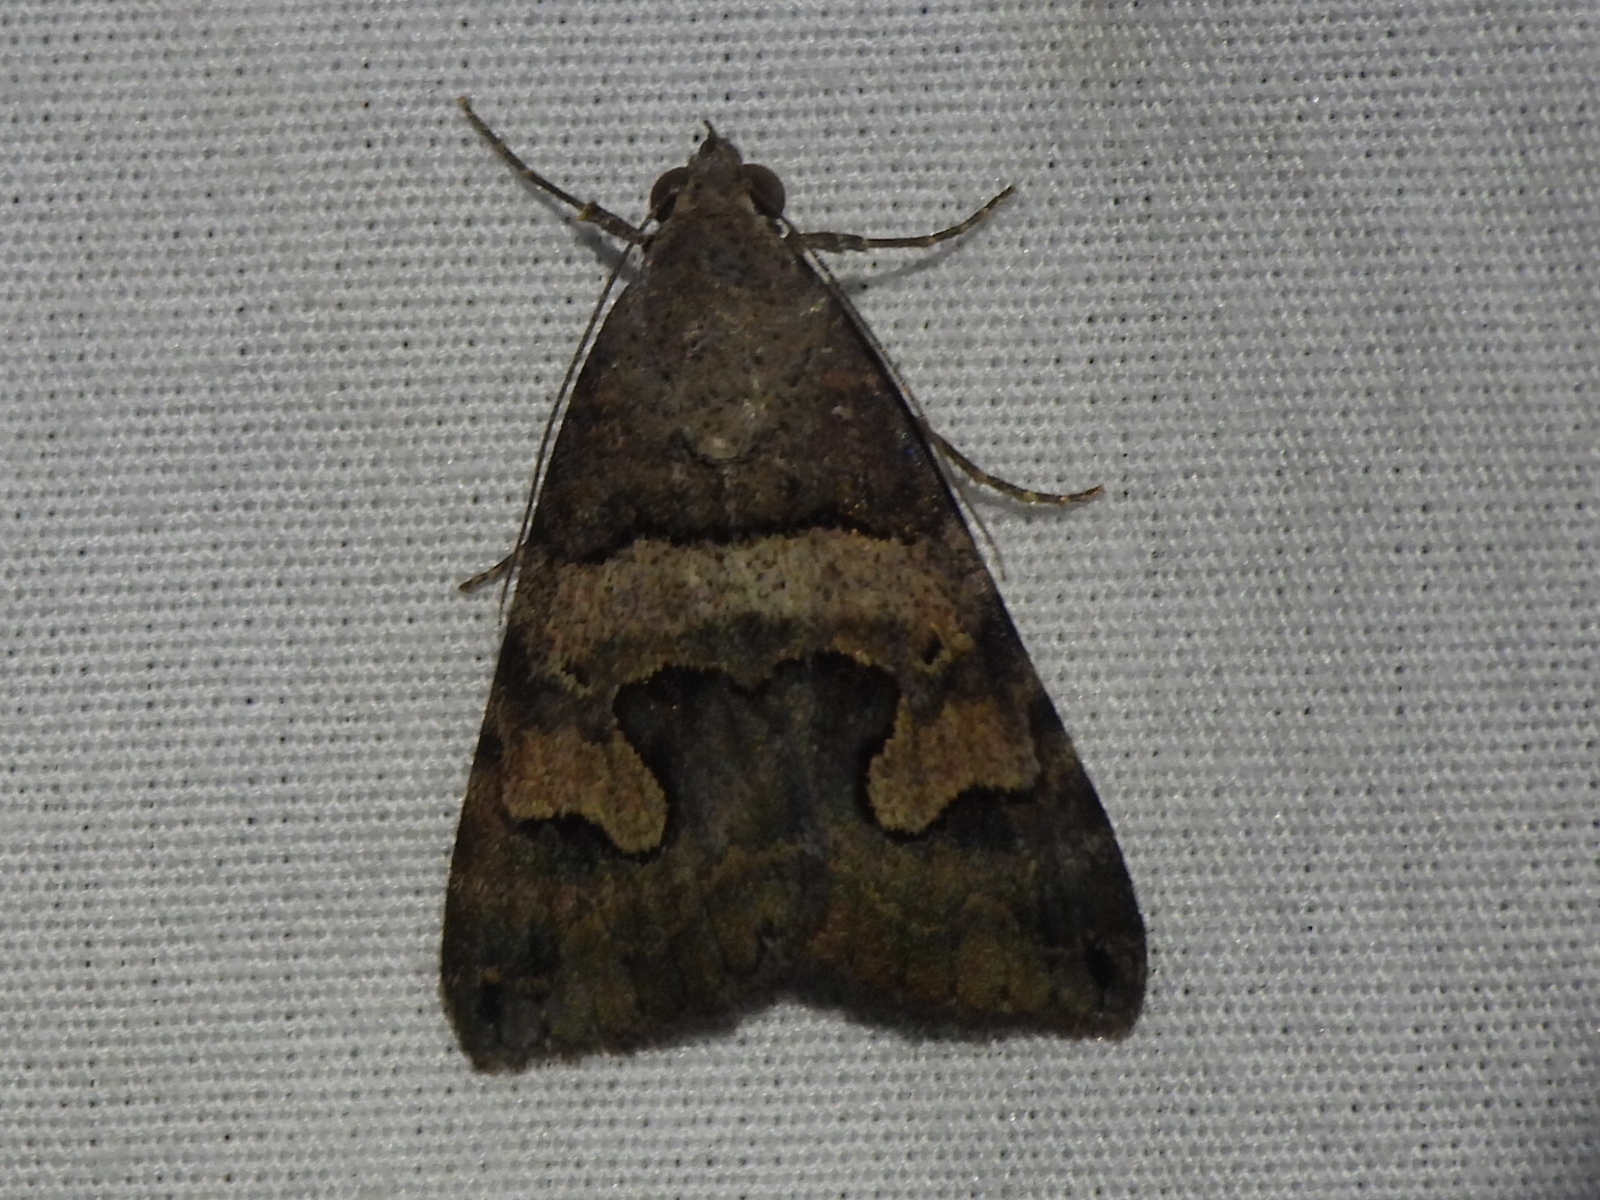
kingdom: Animalia
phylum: Arthropoda
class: Insecta
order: Lepidoptera
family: Erebidae
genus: Bulia
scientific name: Bulia deducta
